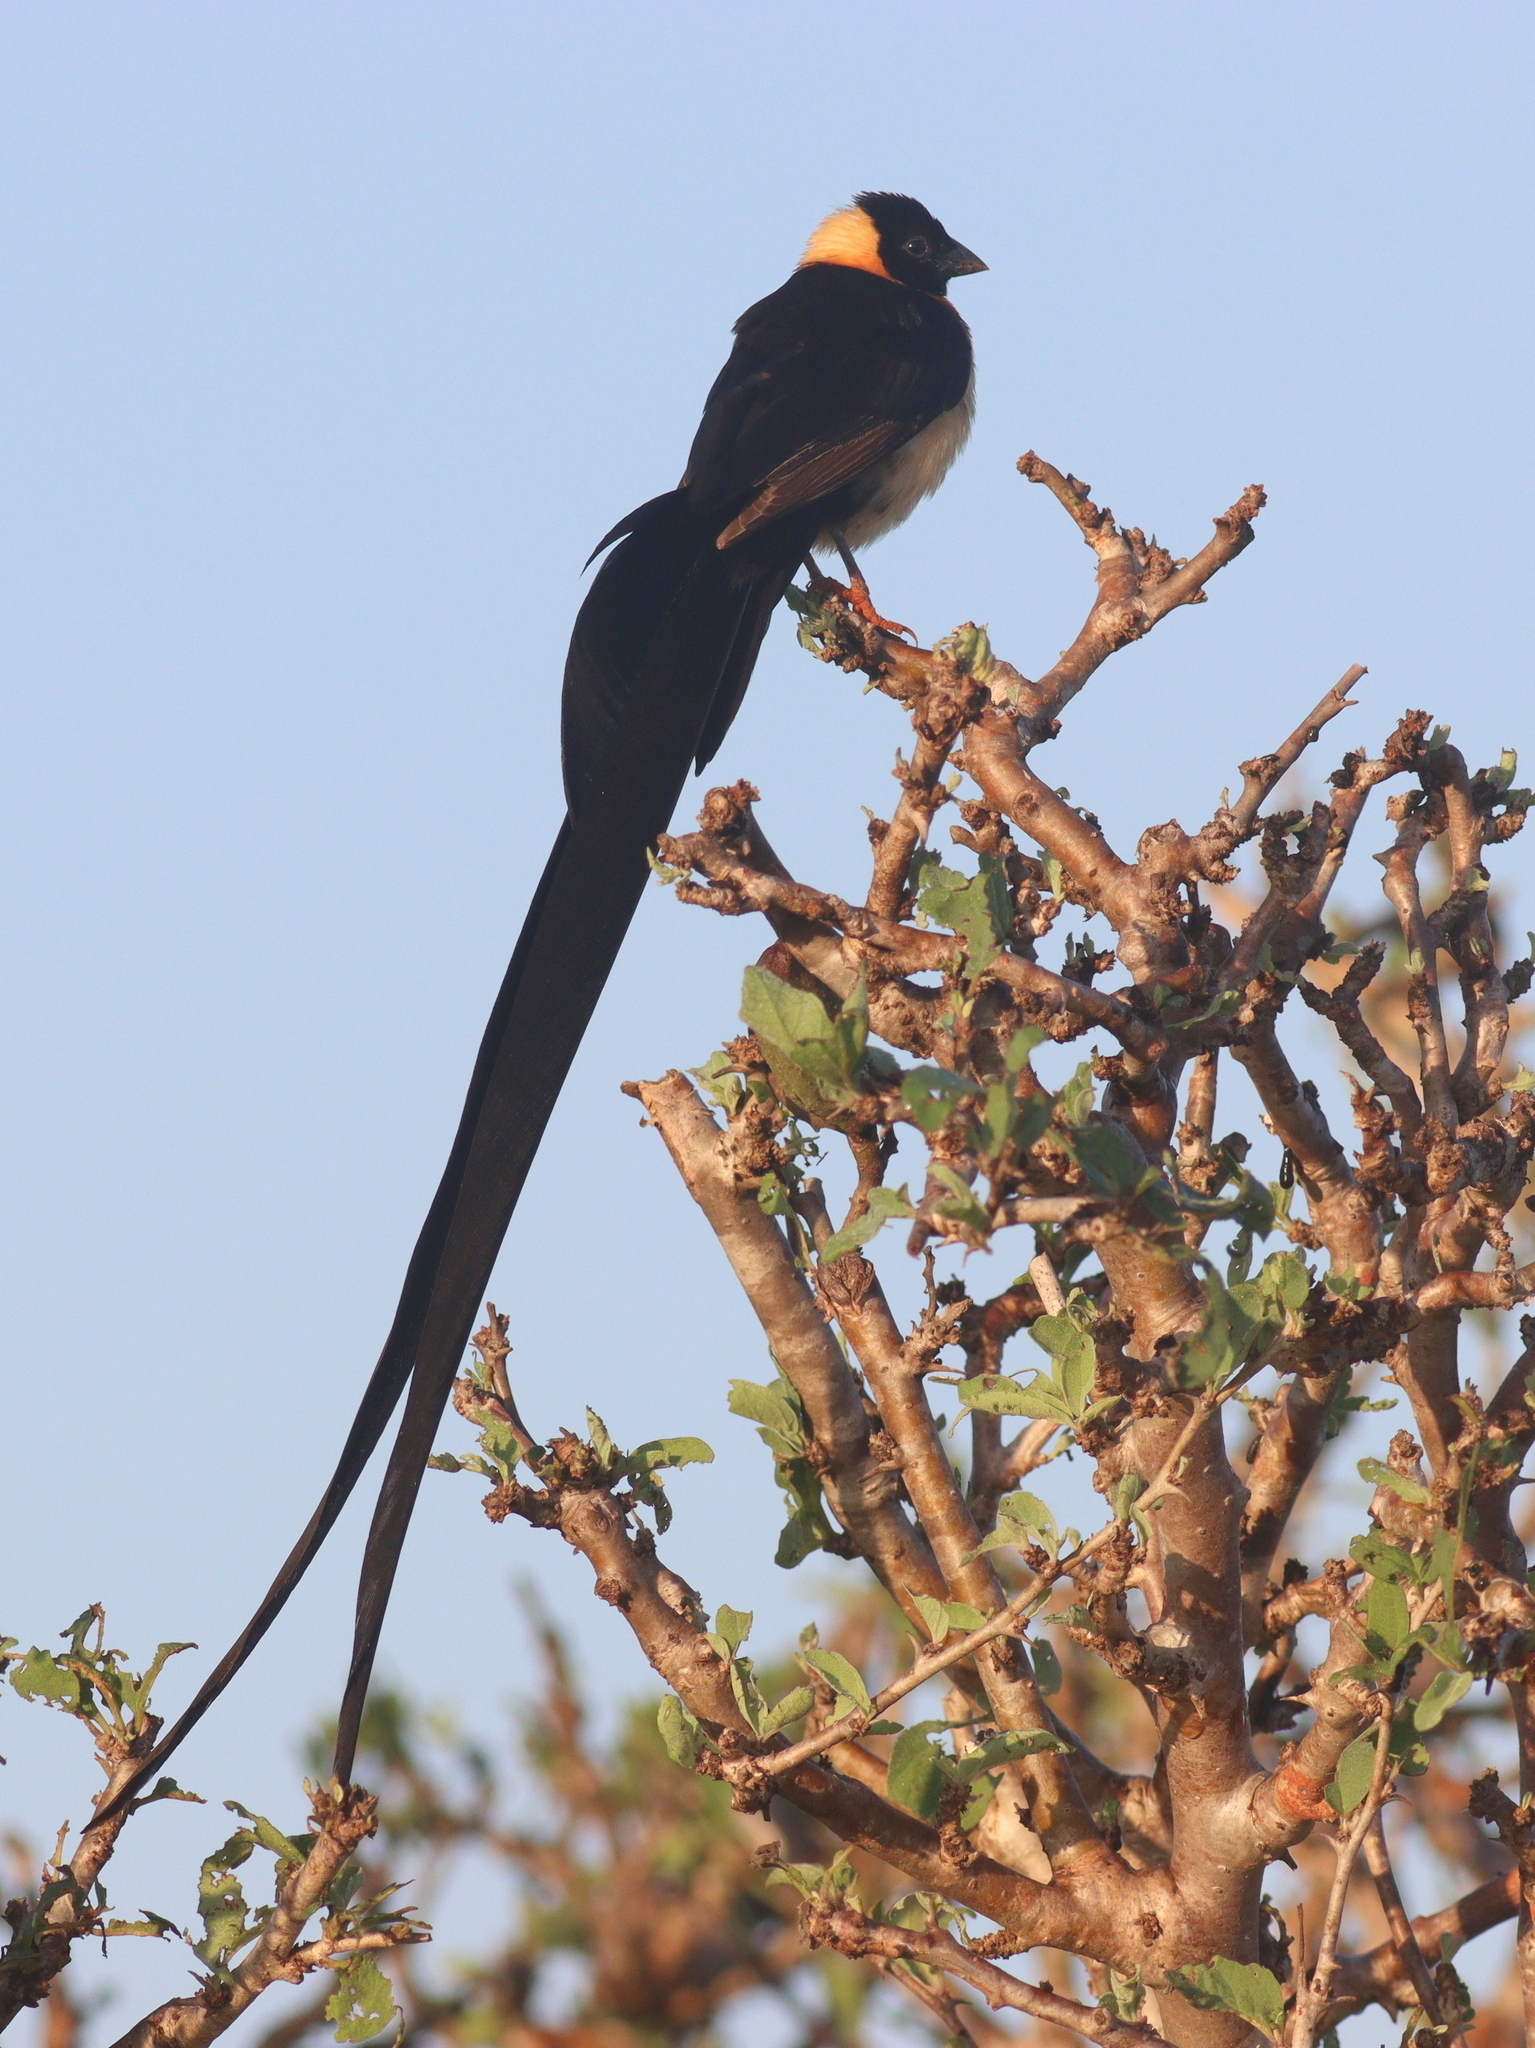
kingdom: Animalia
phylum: Chordata
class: Aves
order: Passeriformes
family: Viduidae
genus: Vidua
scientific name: Vidua paradisaea
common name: Long-tailed paradise whydah
